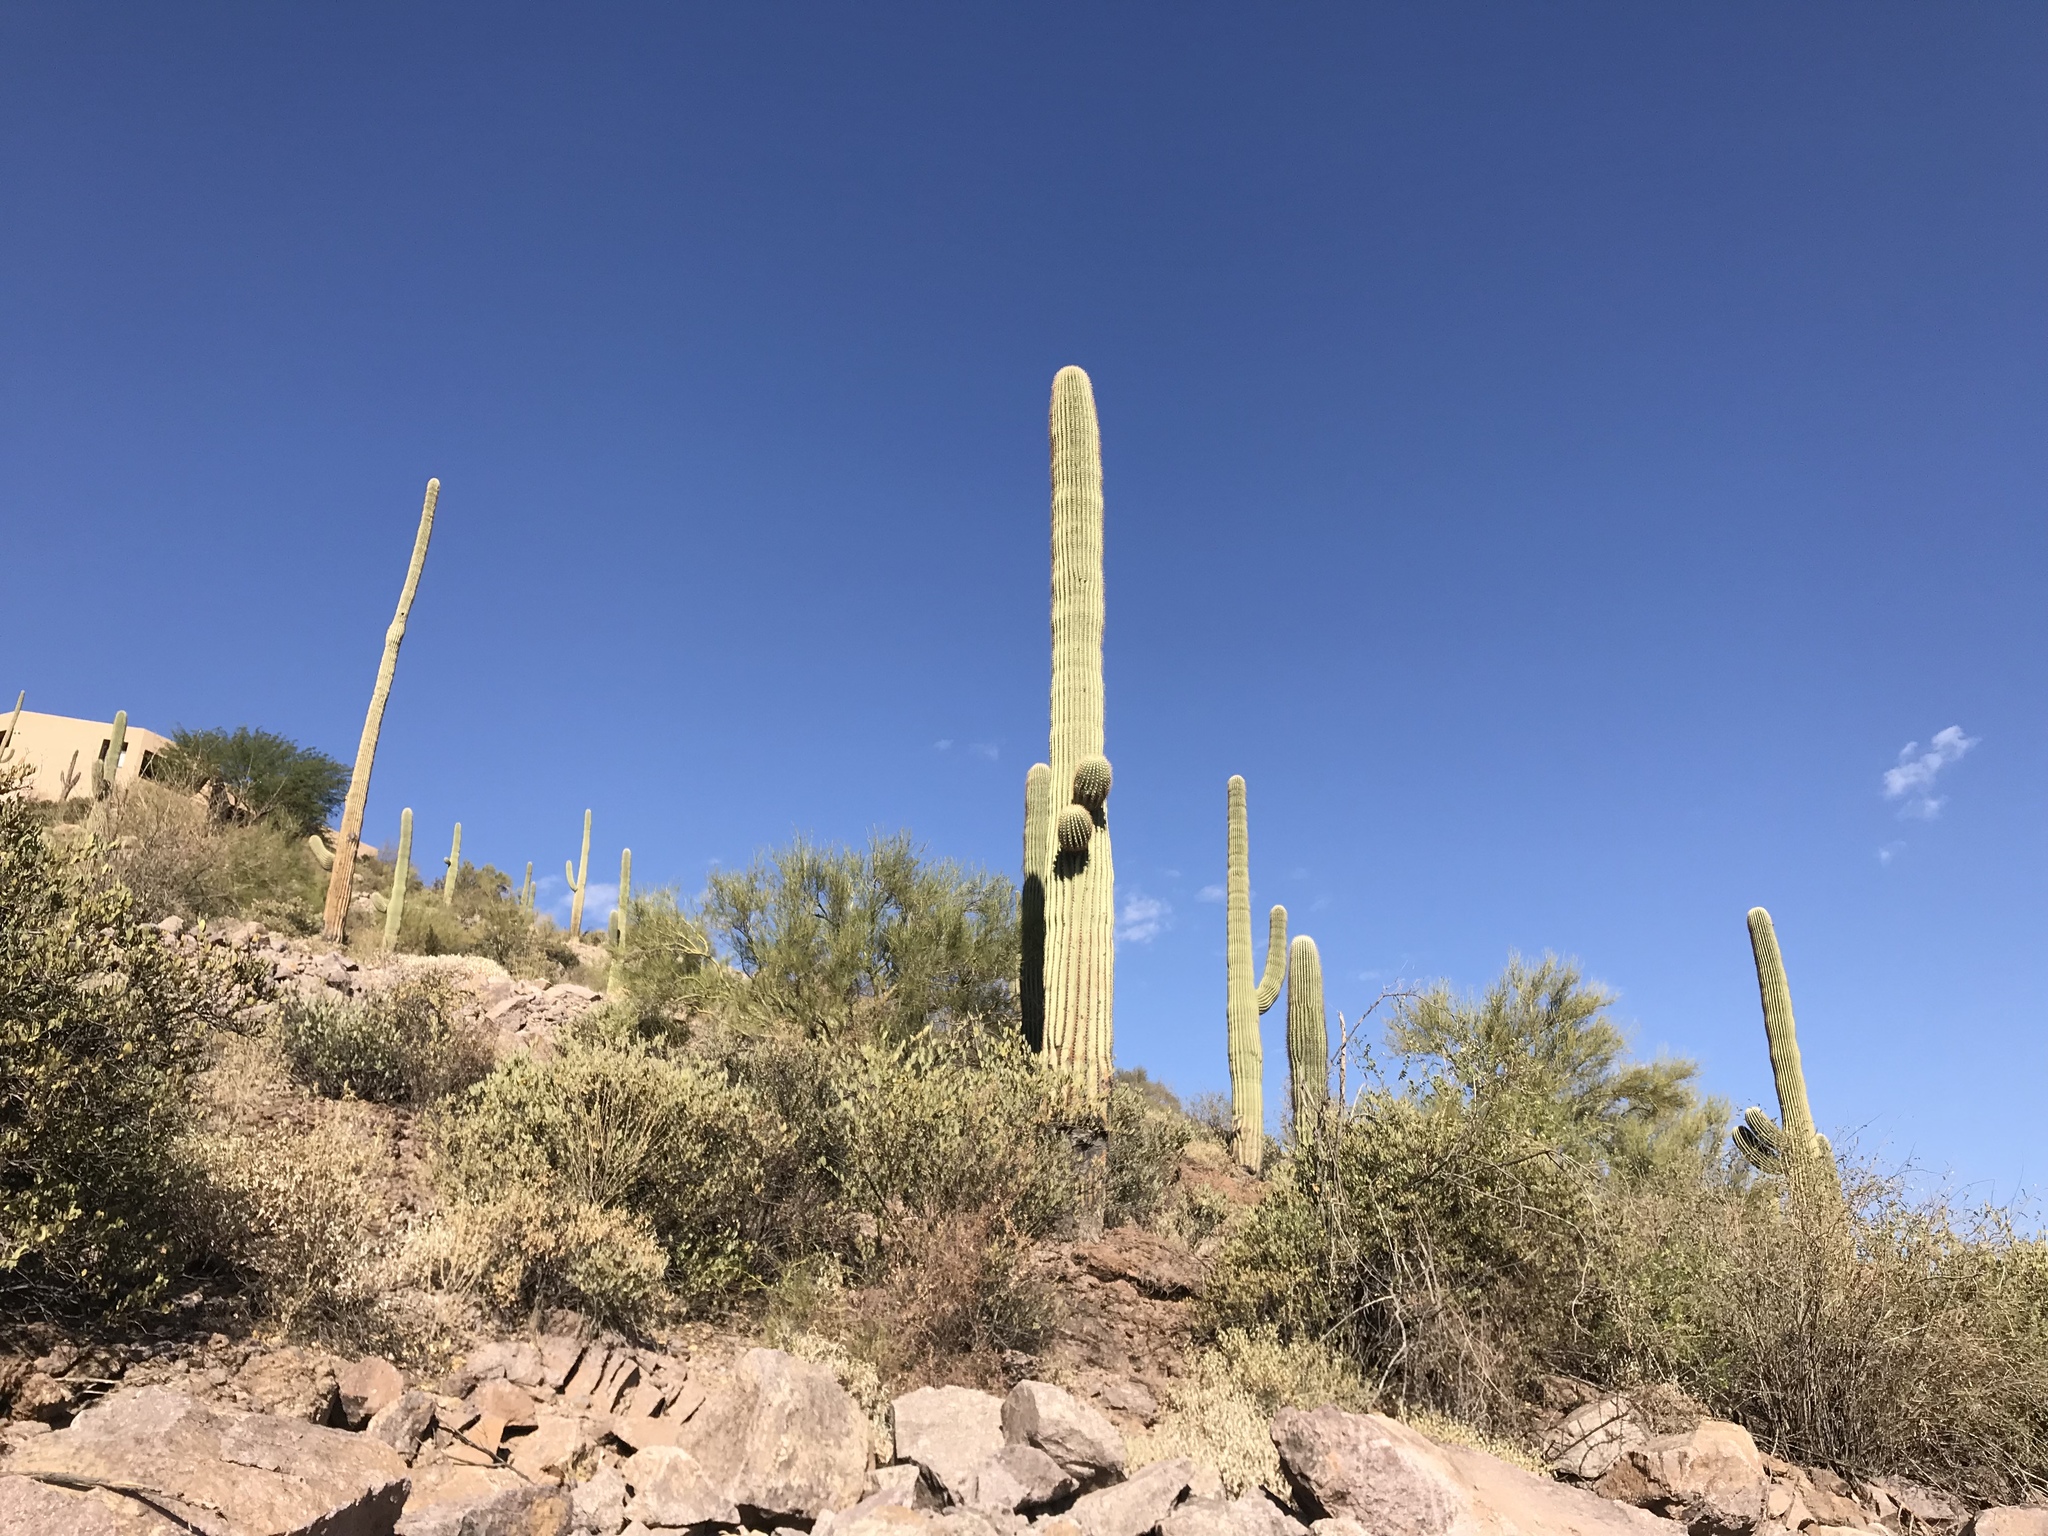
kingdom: Plantae
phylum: Tracheophyta
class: Magnoliopsida
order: Caryophyllales
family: Cactaceae
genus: Carnegiea
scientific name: Carnegiea gigantea
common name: Saguaro
